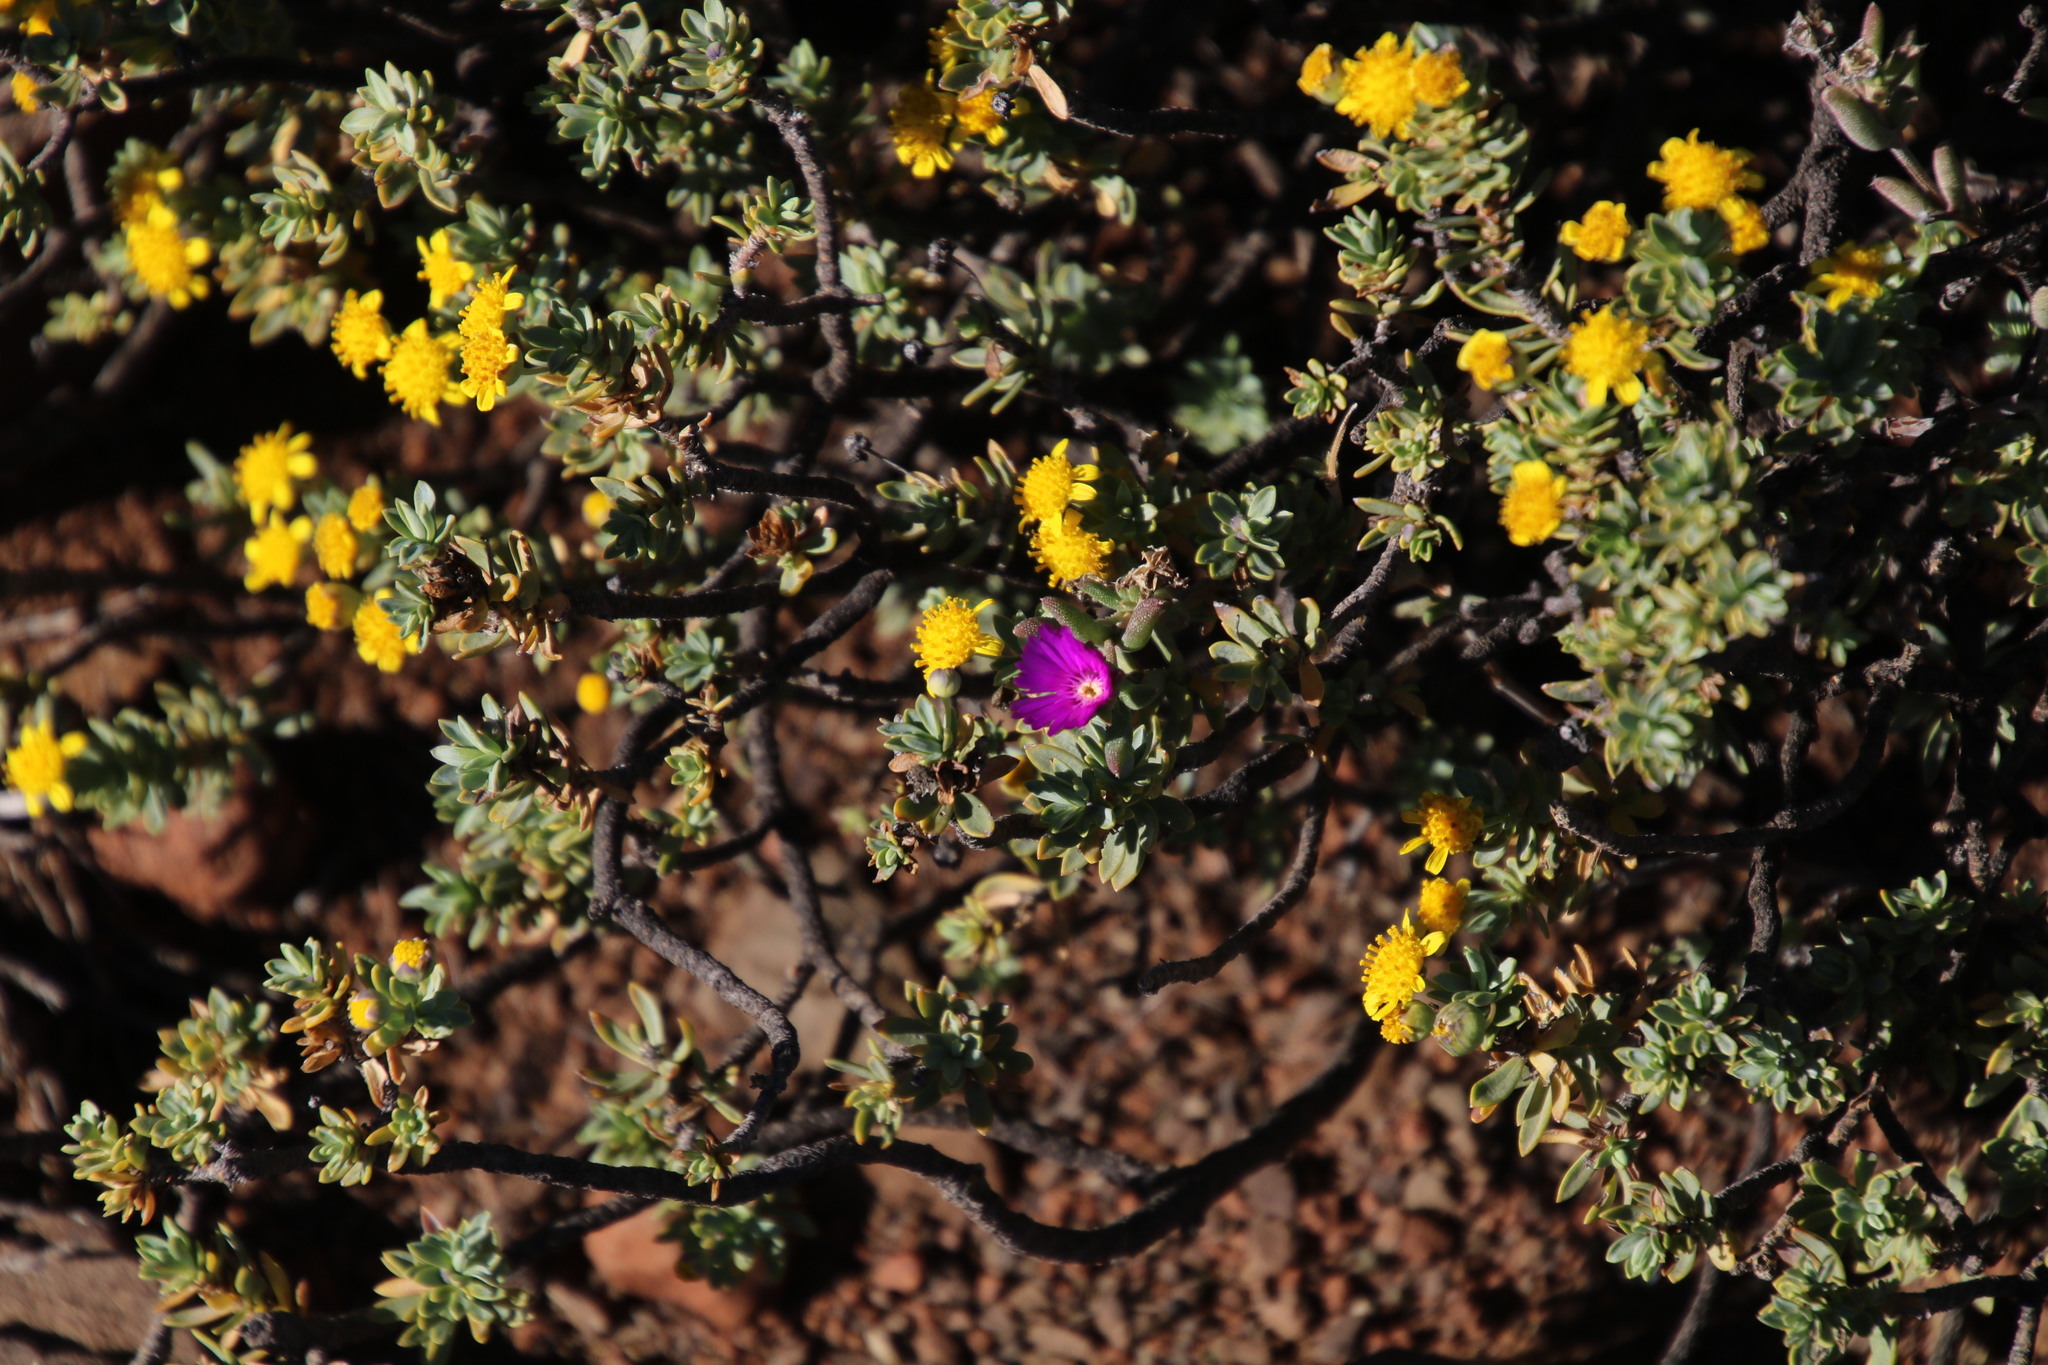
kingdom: Plantae
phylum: Tracheophyta
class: Magnoliopsida
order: Caryophyllales
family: Aizoaceae
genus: Trichodiadema
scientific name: Trichodiadema pomeridianum
